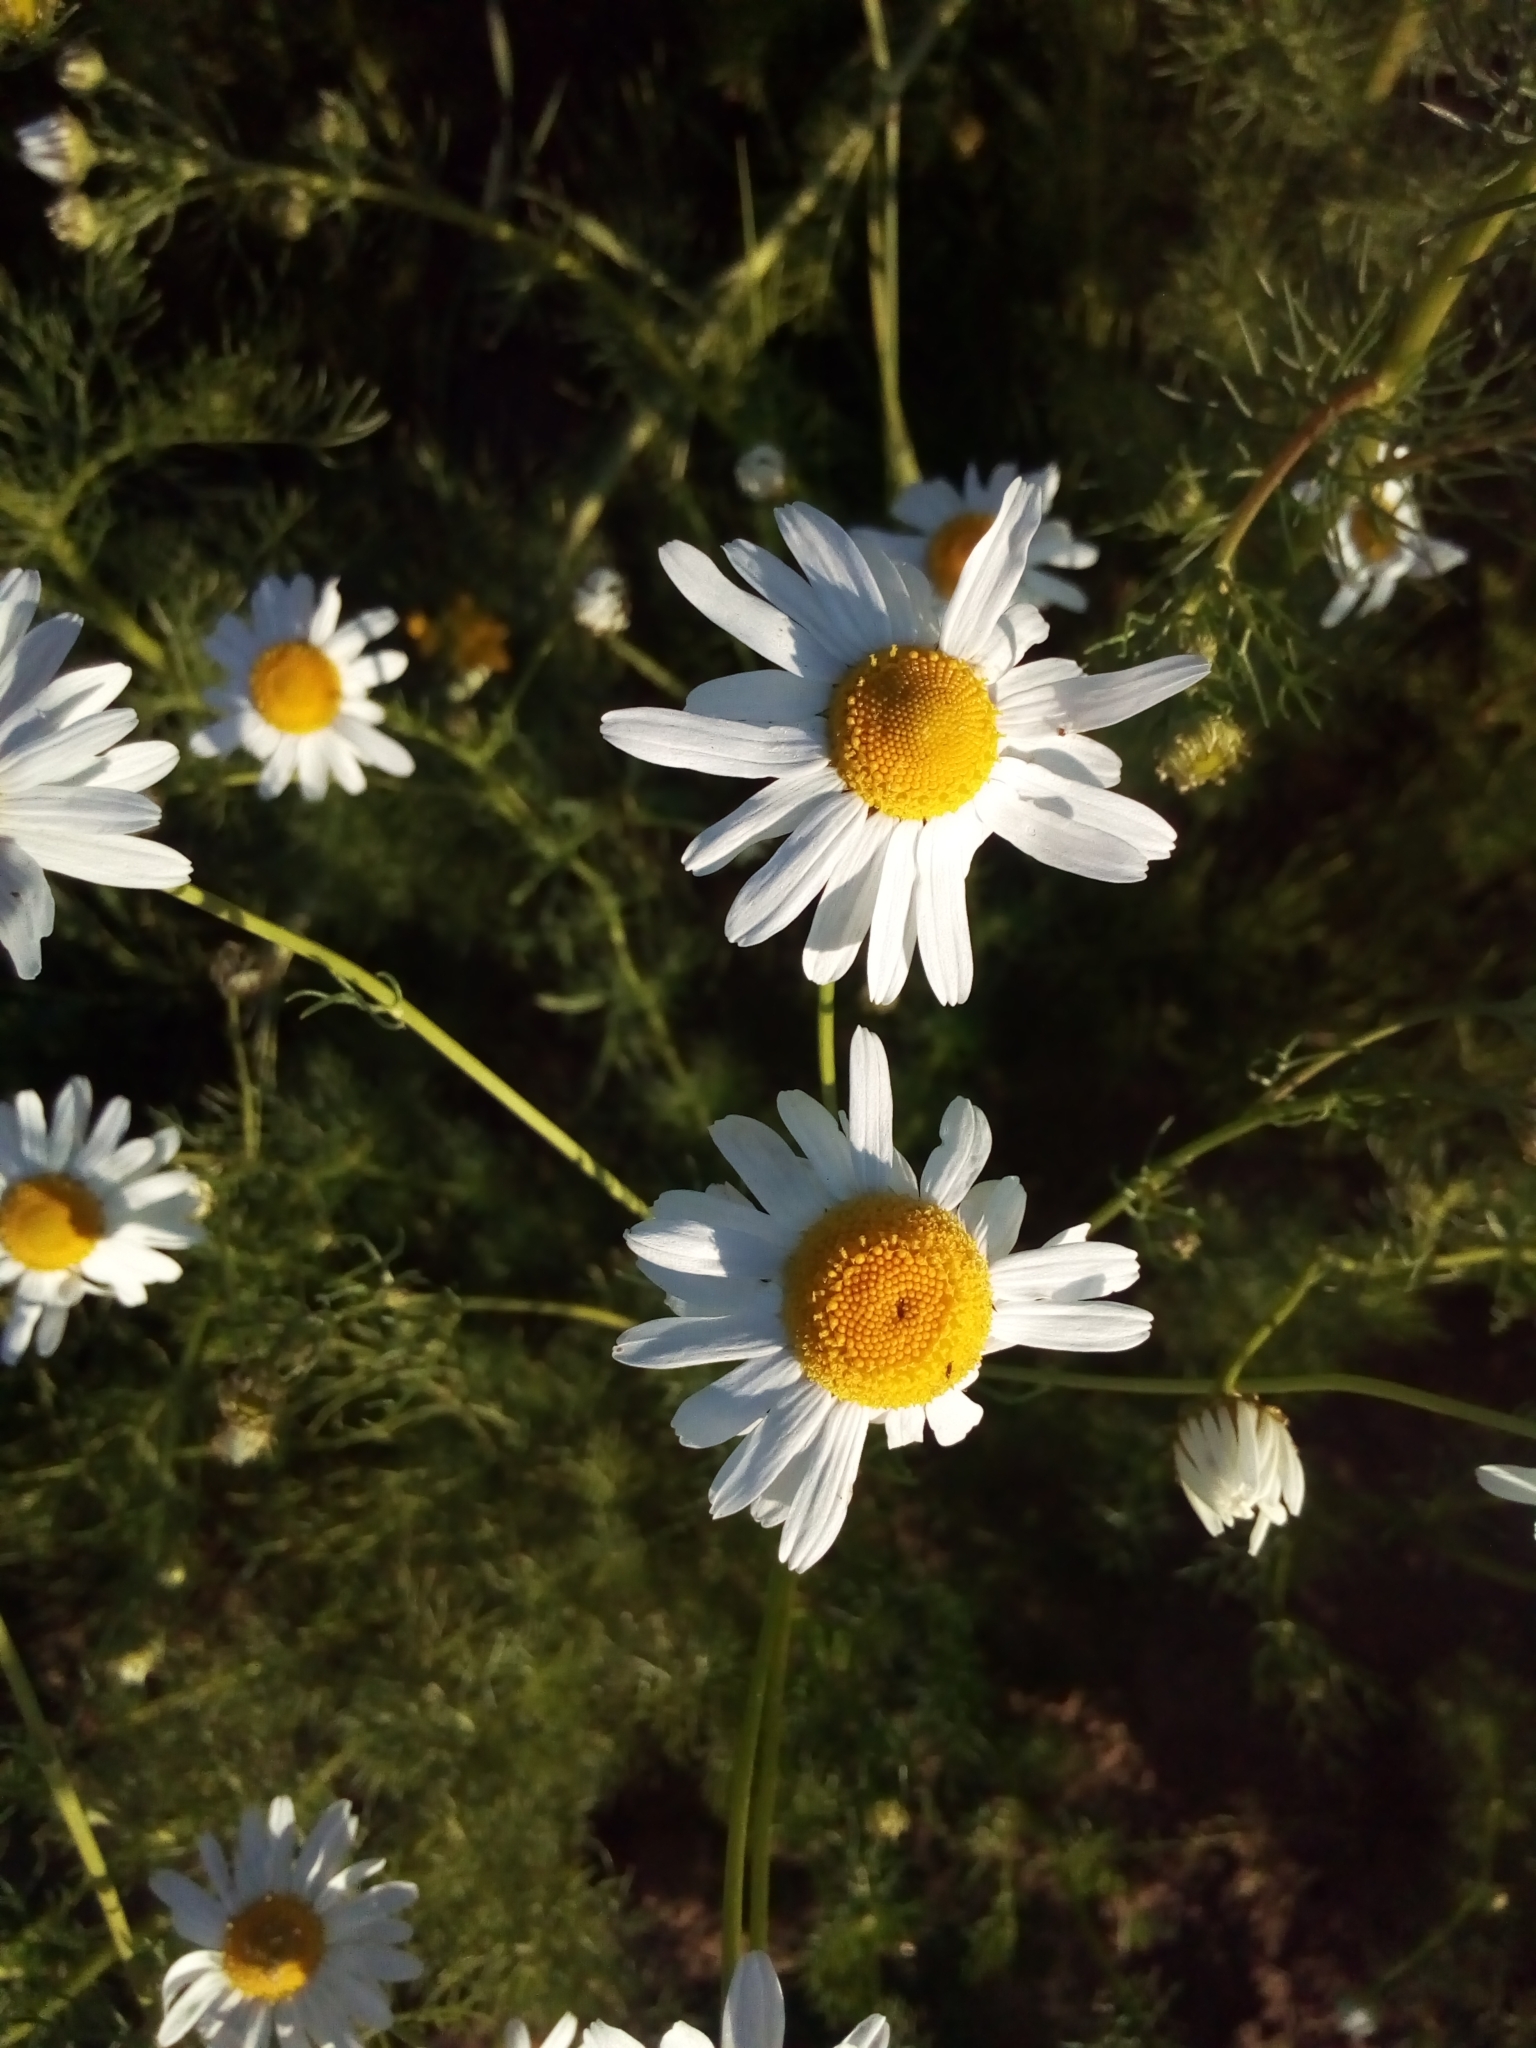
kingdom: Plantae
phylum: Tracheophyta
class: Magnoliopsida
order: Asterales
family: Asteraceae
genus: Tripleurospermum
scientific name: Tripleurospermum inodorum
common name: Scentless mayweed
